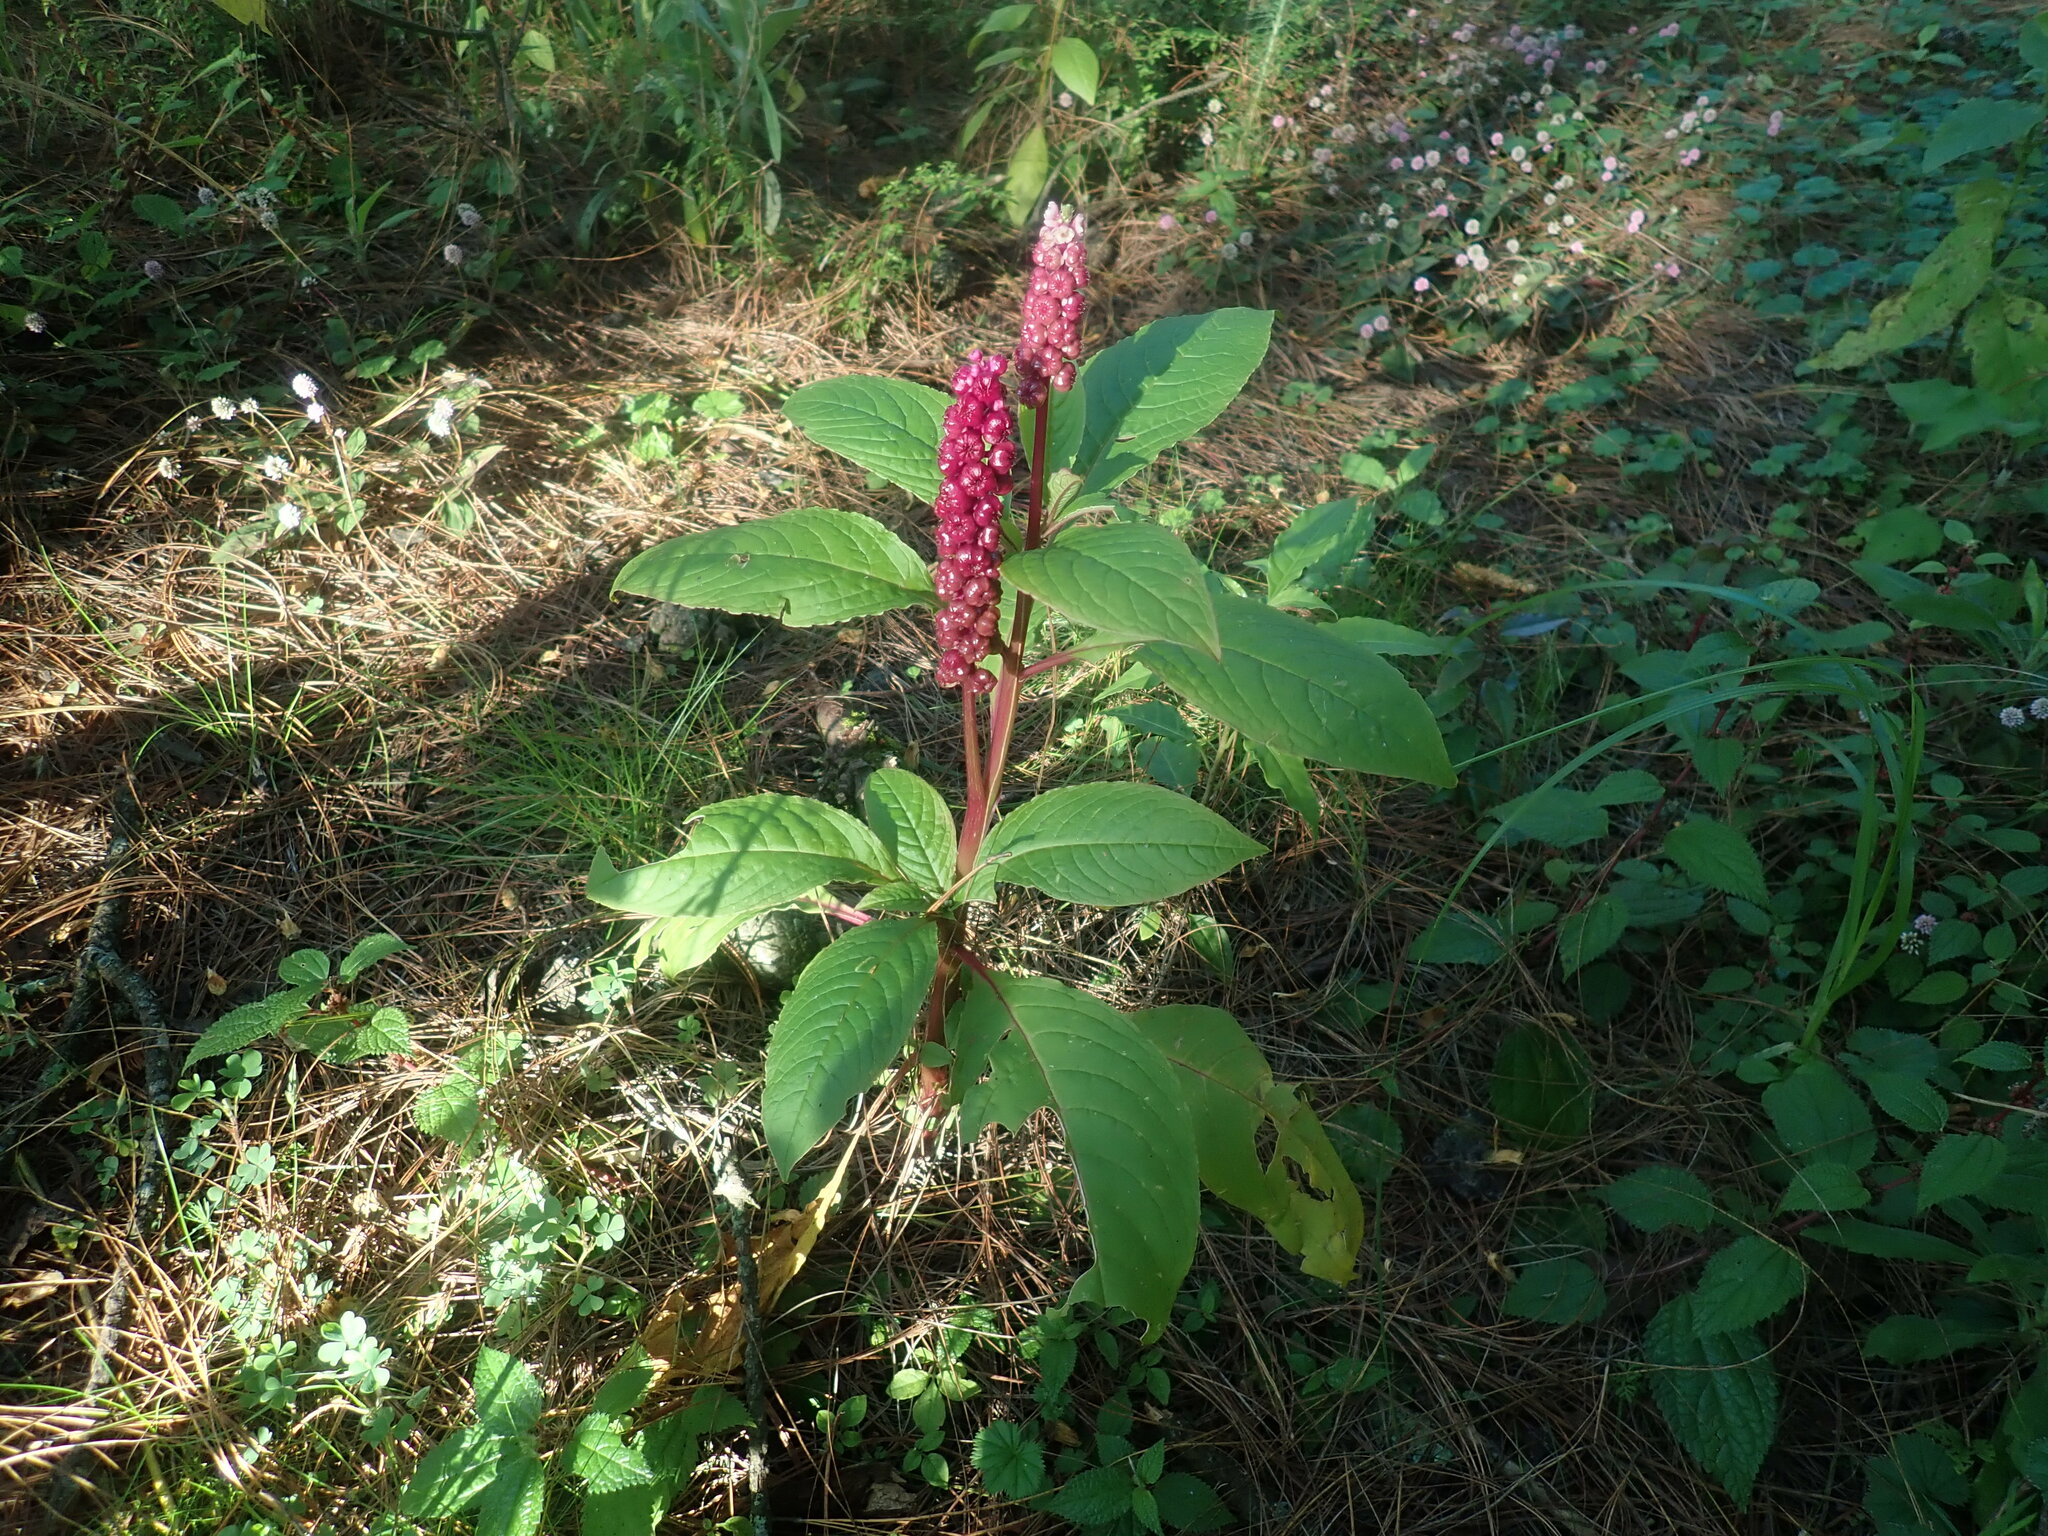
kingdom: Plantae
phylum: Tracheophyta
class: Magnoliopsida
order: Caryophyllales
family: Phytolaccaceae
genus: Phytolacca
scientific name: Phytolacca rugosa
